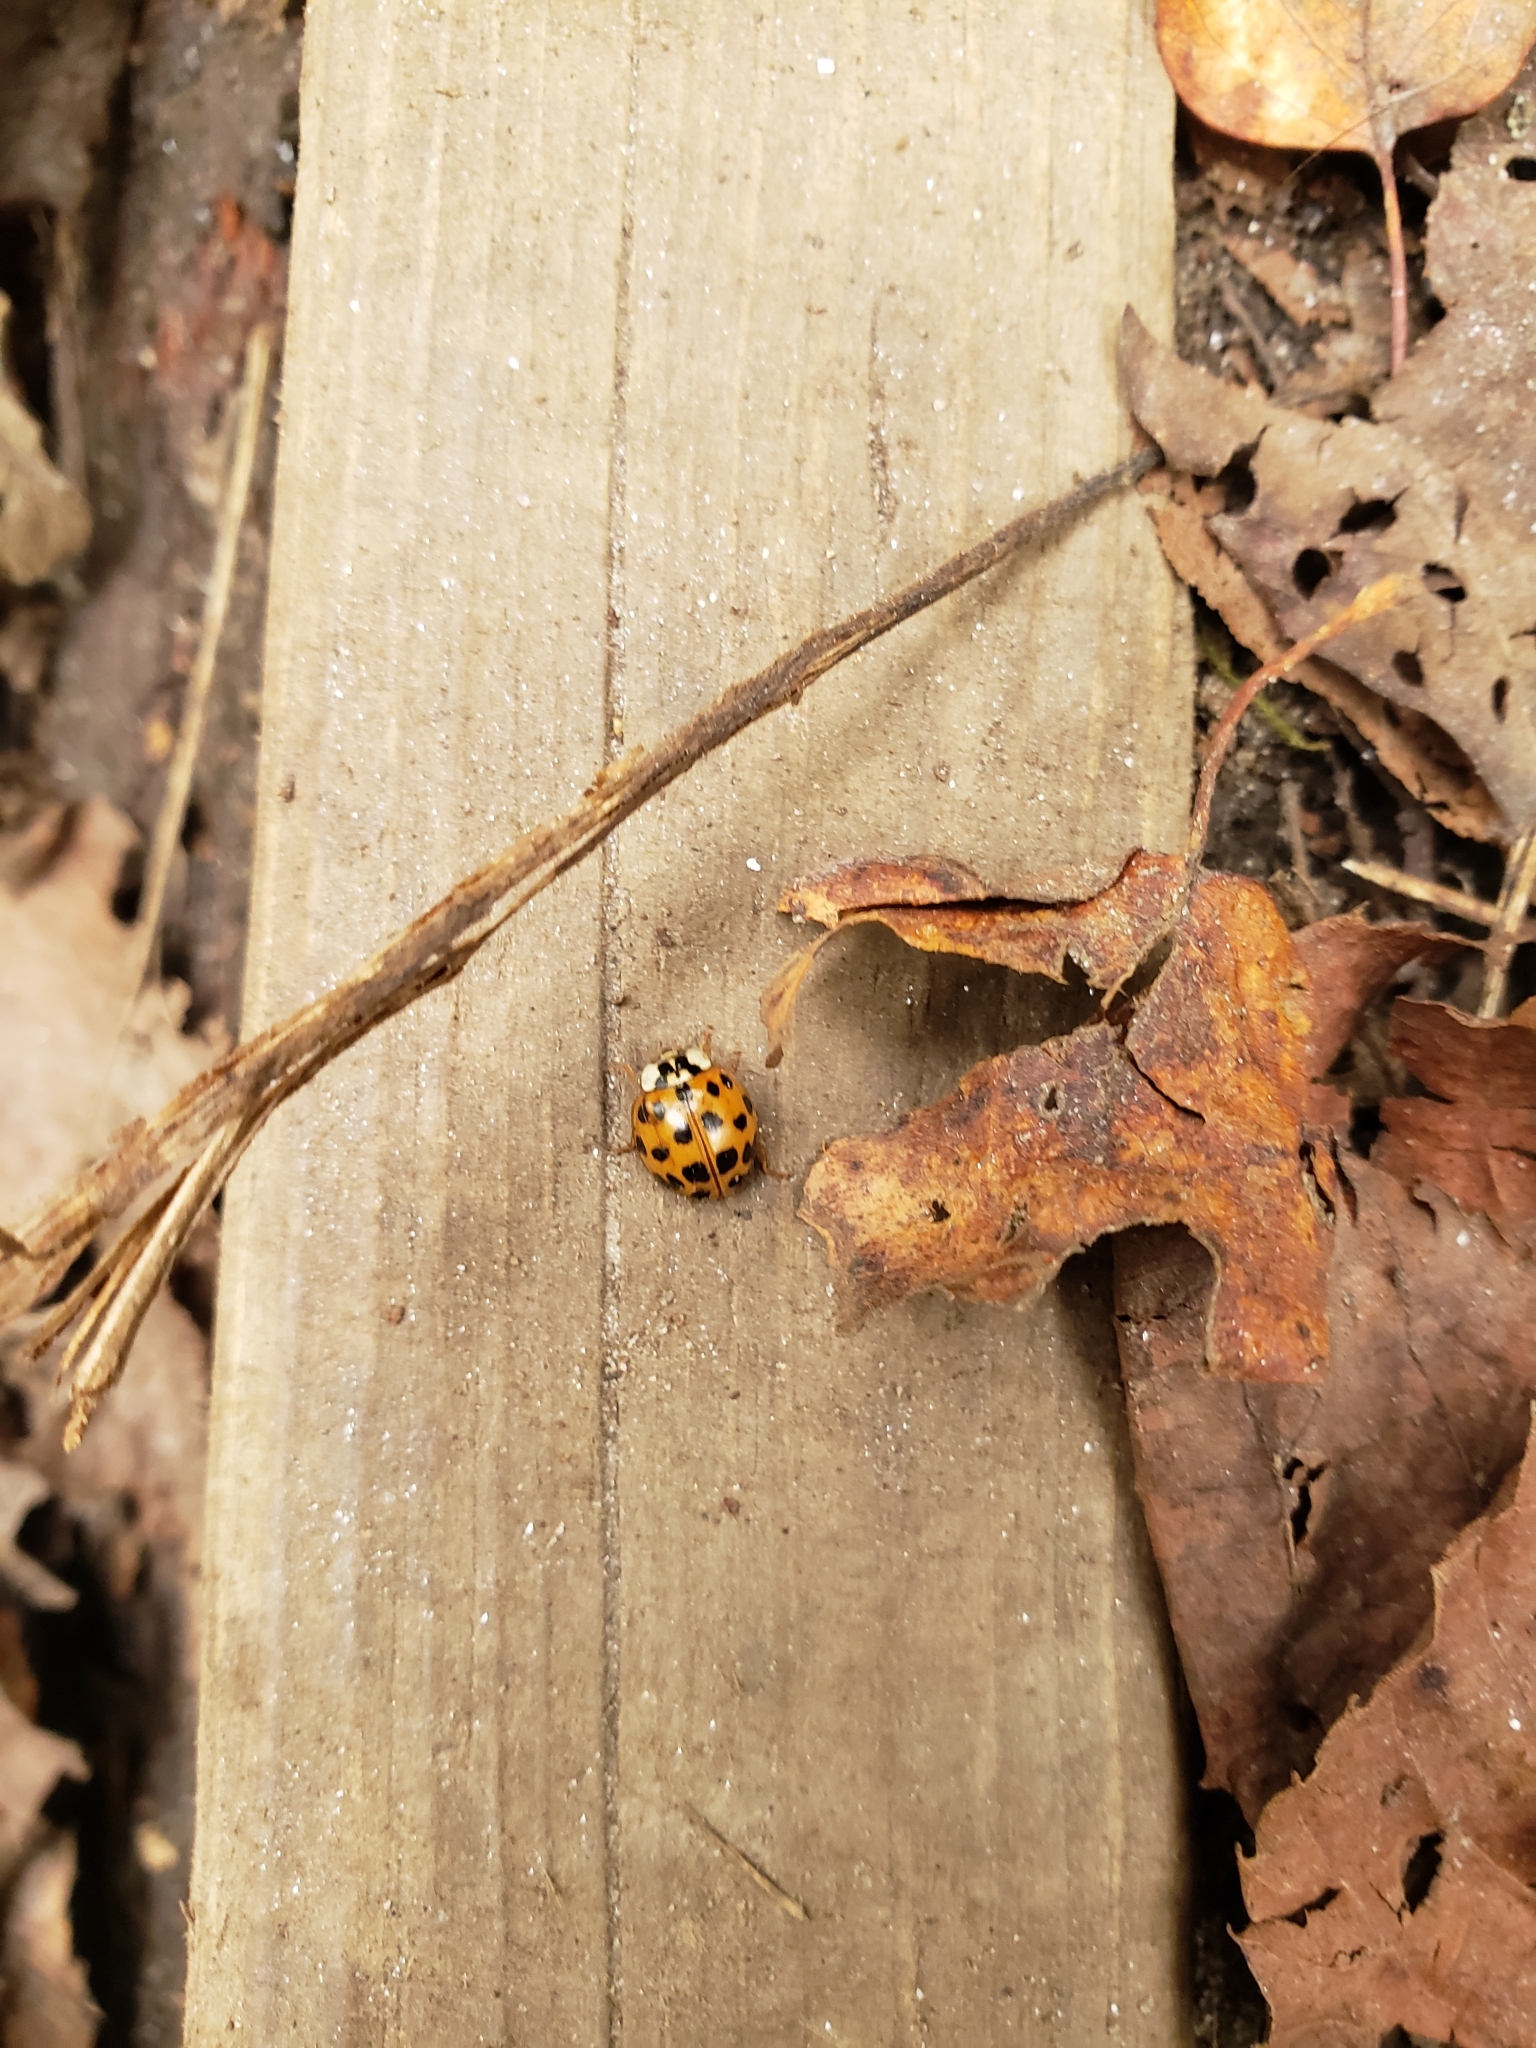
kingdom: Animalia
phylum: Arthropoda
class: Insecta
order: Coleoptera
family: Coccinellidae
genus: Harmonia
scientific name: Harmonia axyridis
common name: Harlequin ladybird
